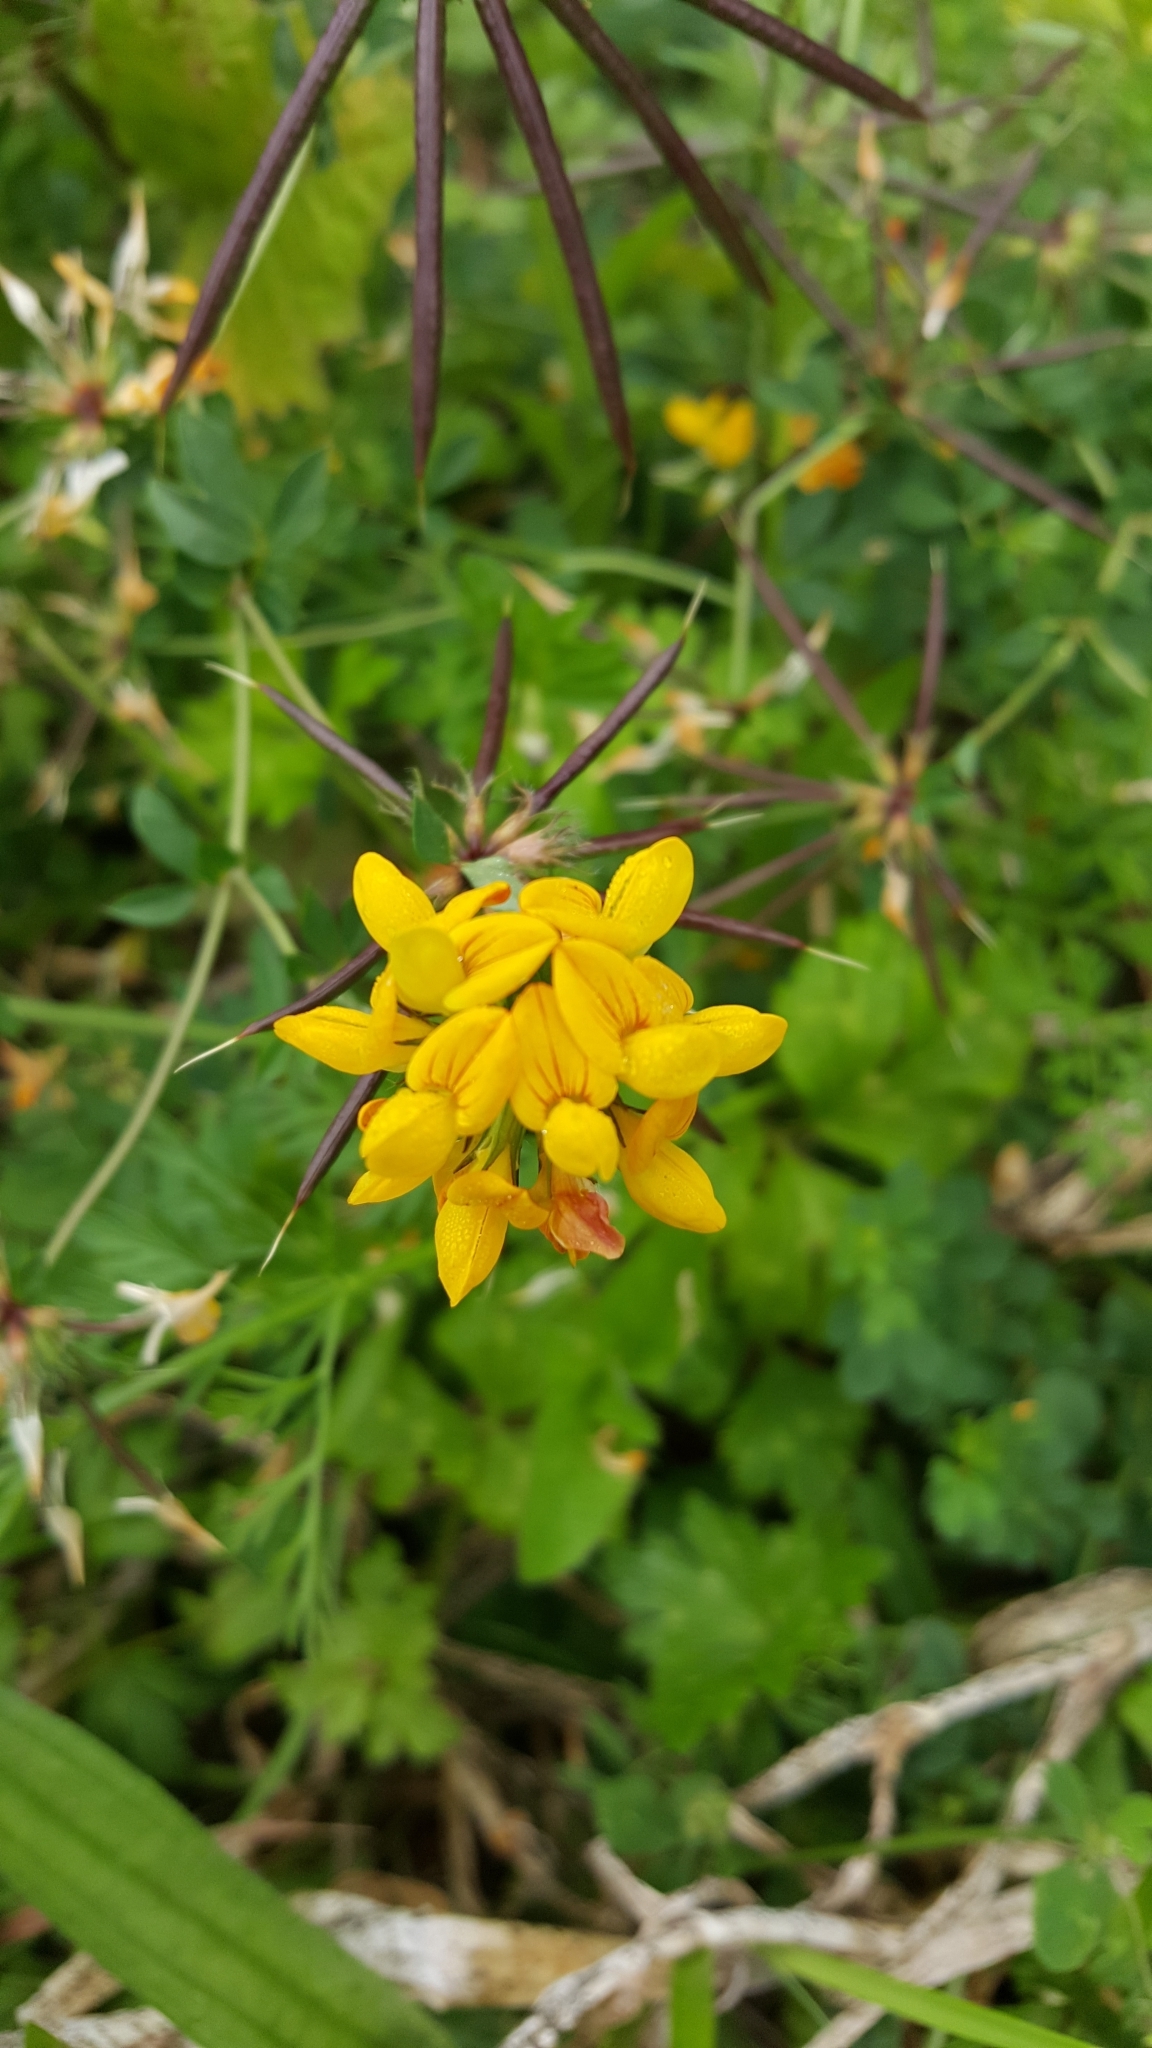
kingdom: Plantae
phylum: Tracheophyta
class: Magnoliopsida
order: Fabales
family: Fabaceae
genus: Lotus
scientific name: Lotus pedunculatus
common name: Greater birdsfoot-trefoil
